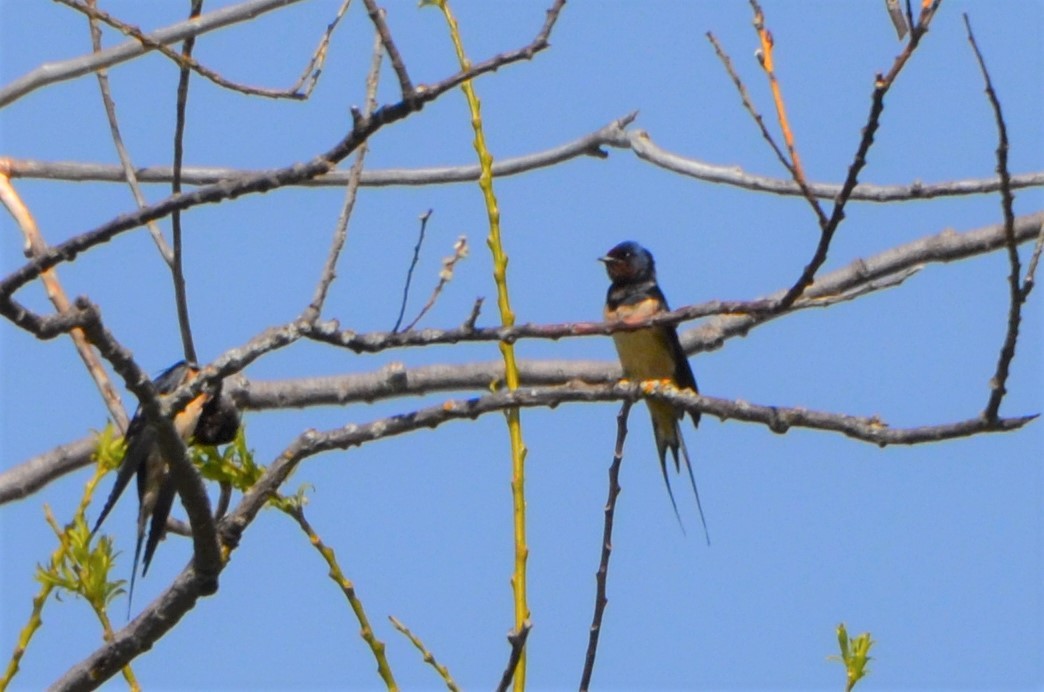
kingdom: Animalia
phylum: Chordata
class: Aves
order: Passeriformes
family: Hirundinidae
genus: Hirundo
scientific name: Hirundo rustica
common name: Barn swallow
